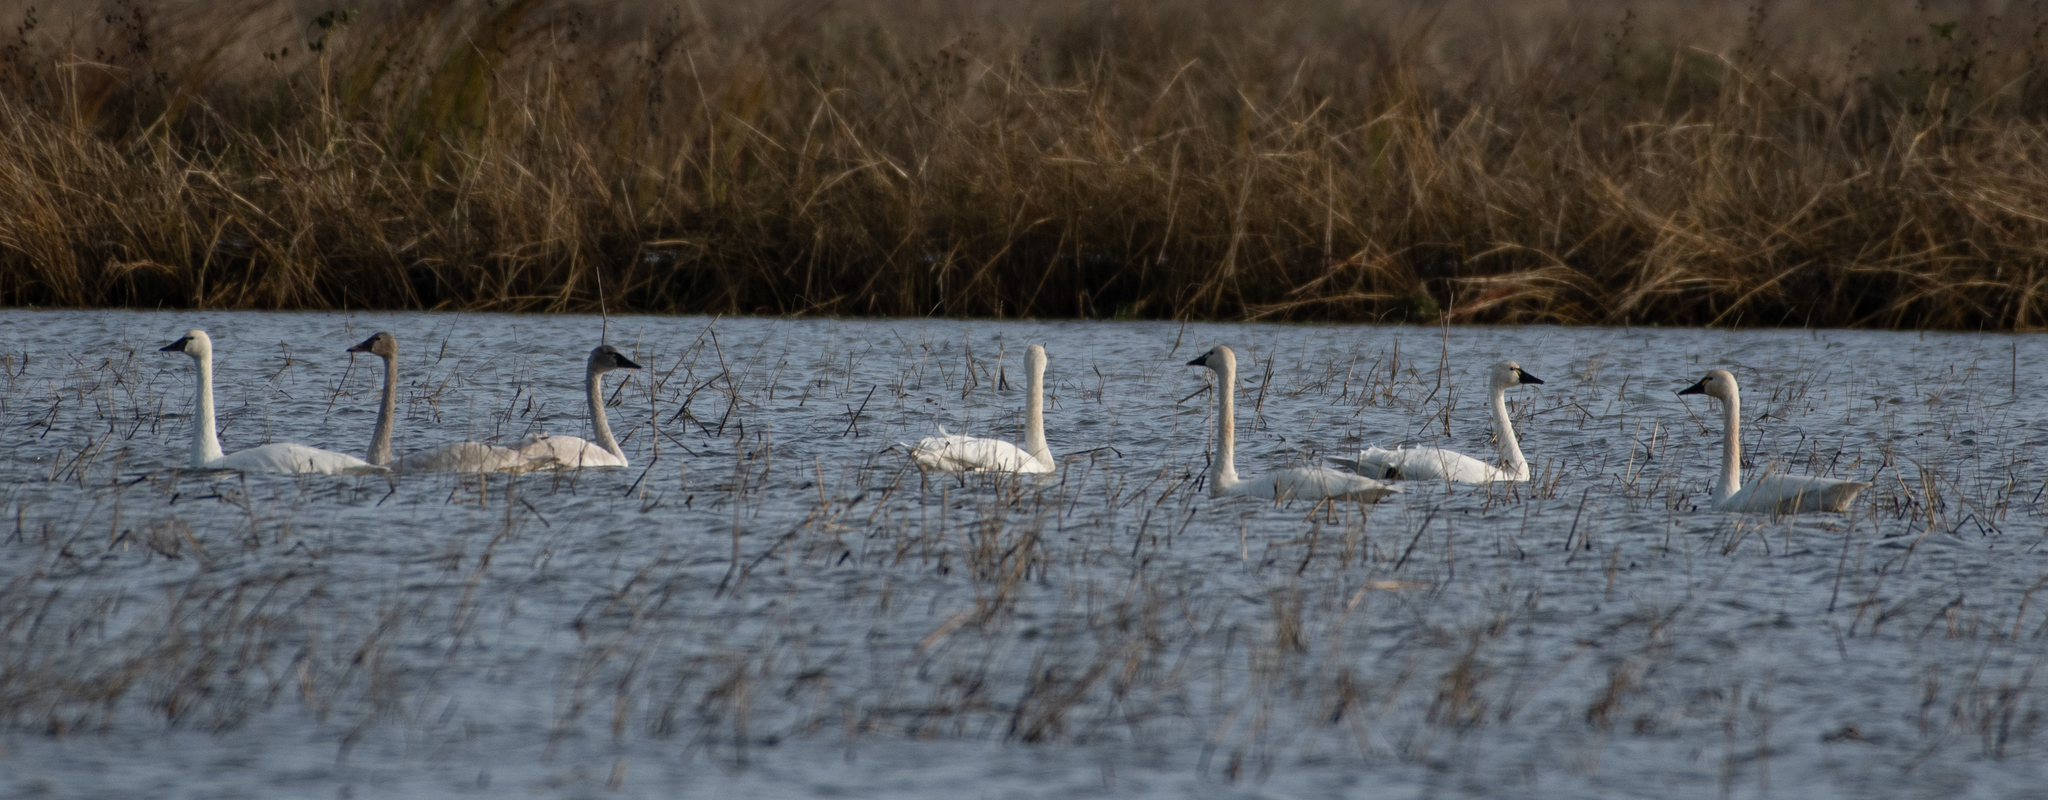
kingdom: Animalia
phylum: Chordata
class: Aves
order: Anseriformes
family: Anatidae
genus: Cygnus
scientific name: Cygnus columbianus
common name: Tundra swan
